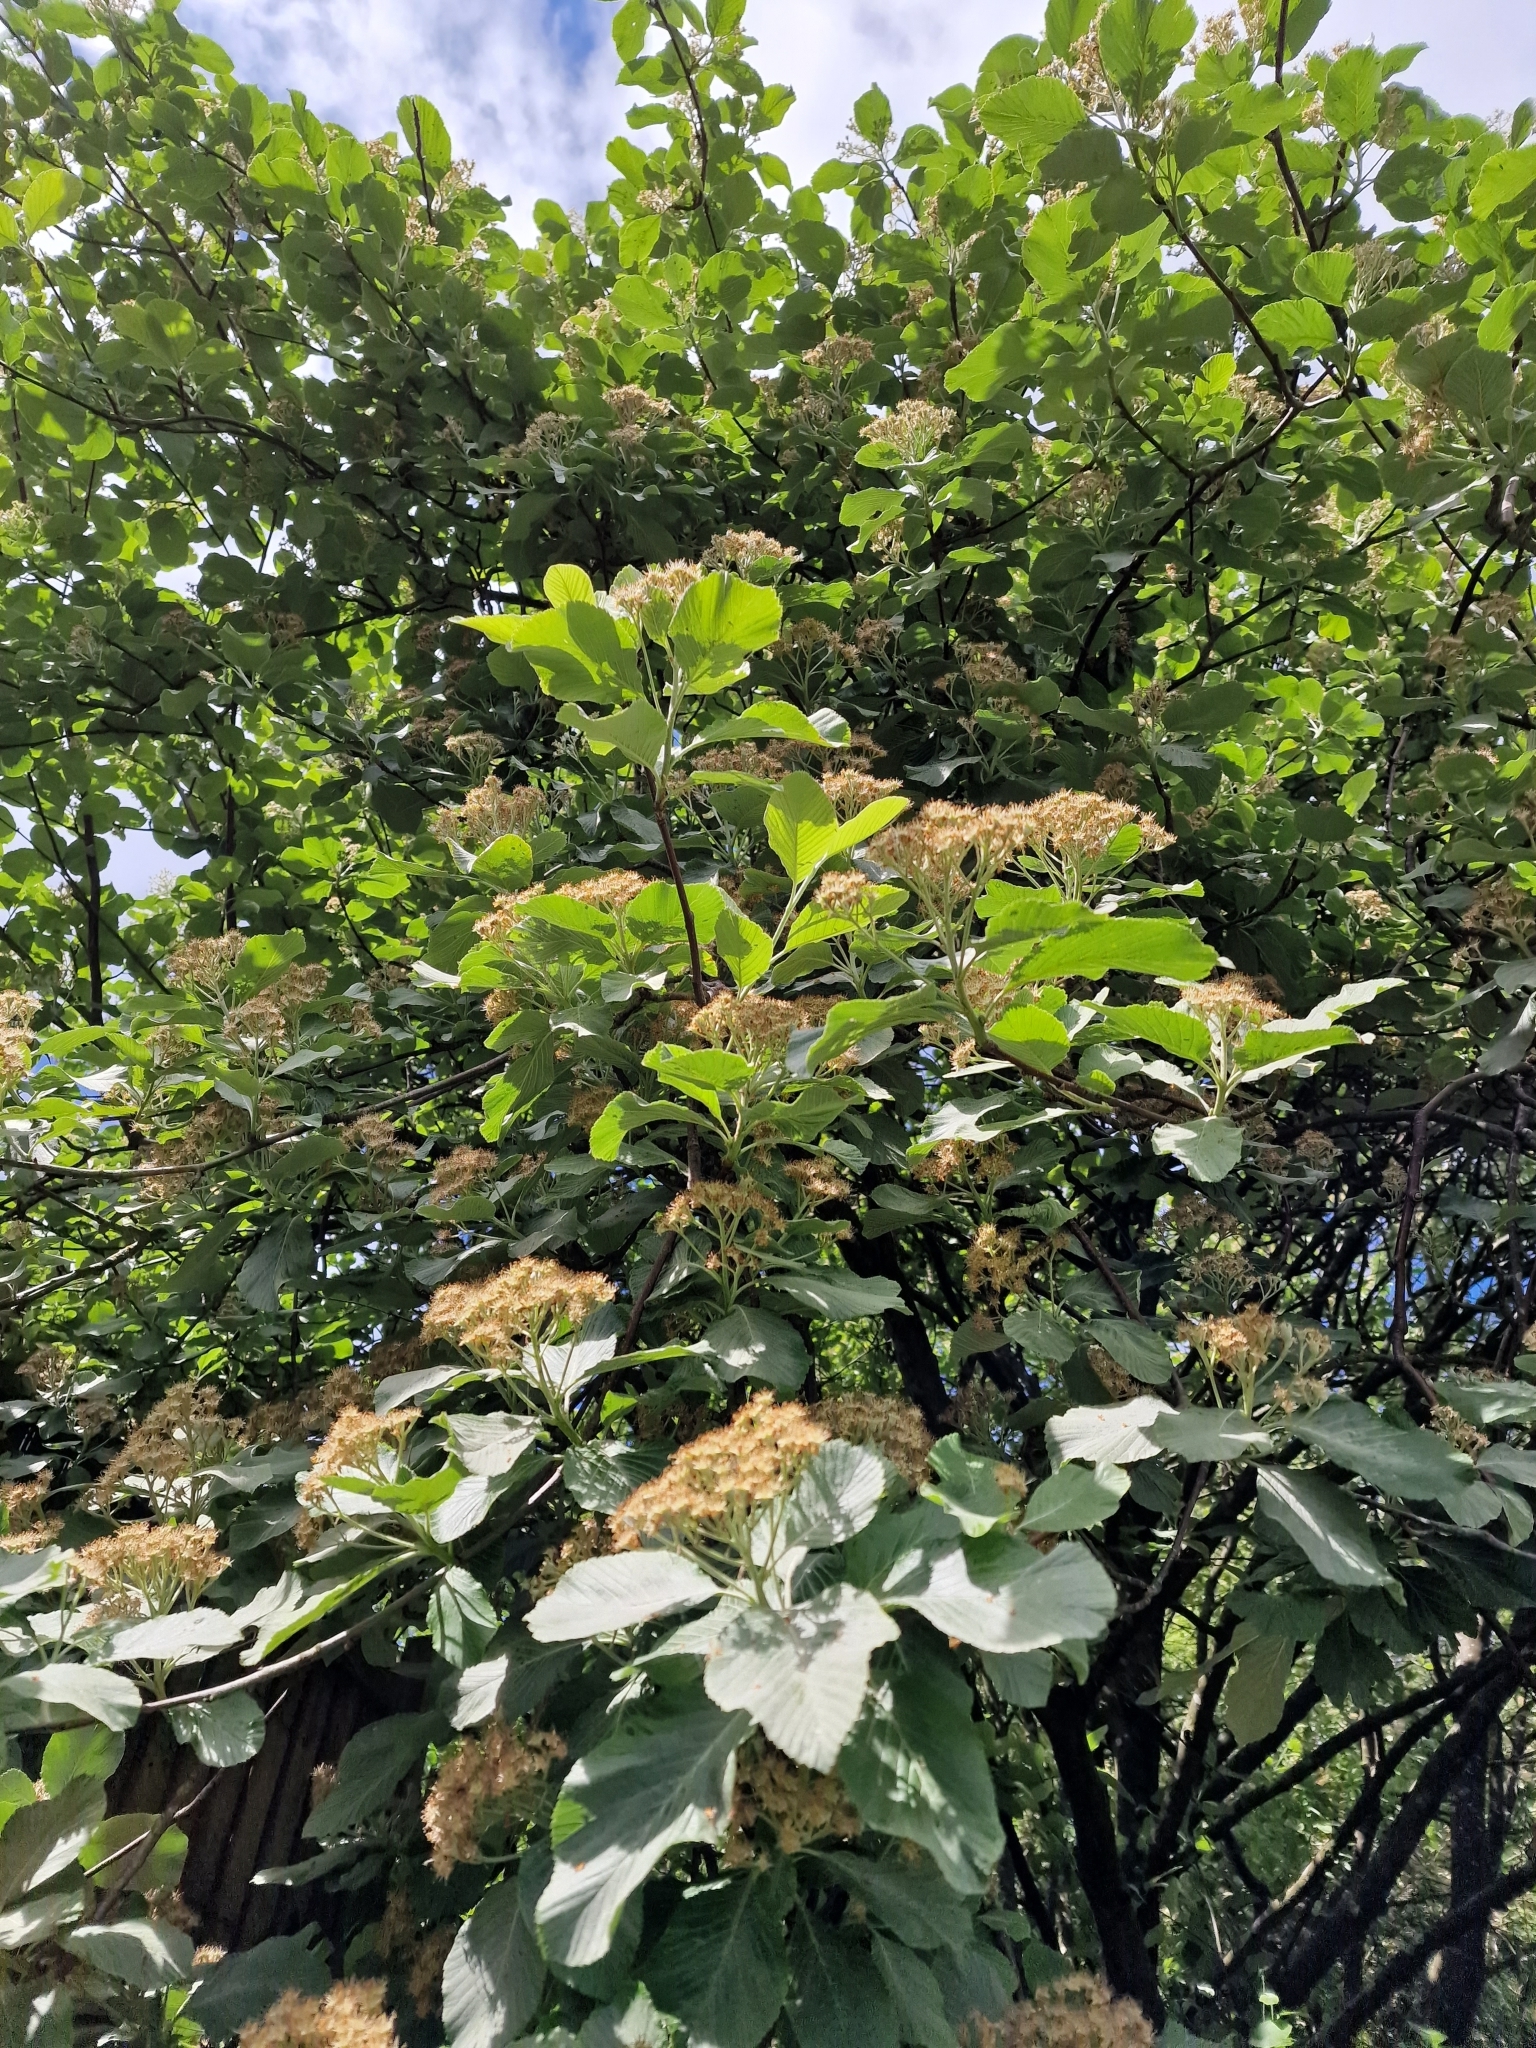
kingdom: Plantae
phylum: Tracheophyta
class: Magnoliopsida
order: Rosales
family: Rosaceae
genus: Aria
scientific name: Aria edulis
